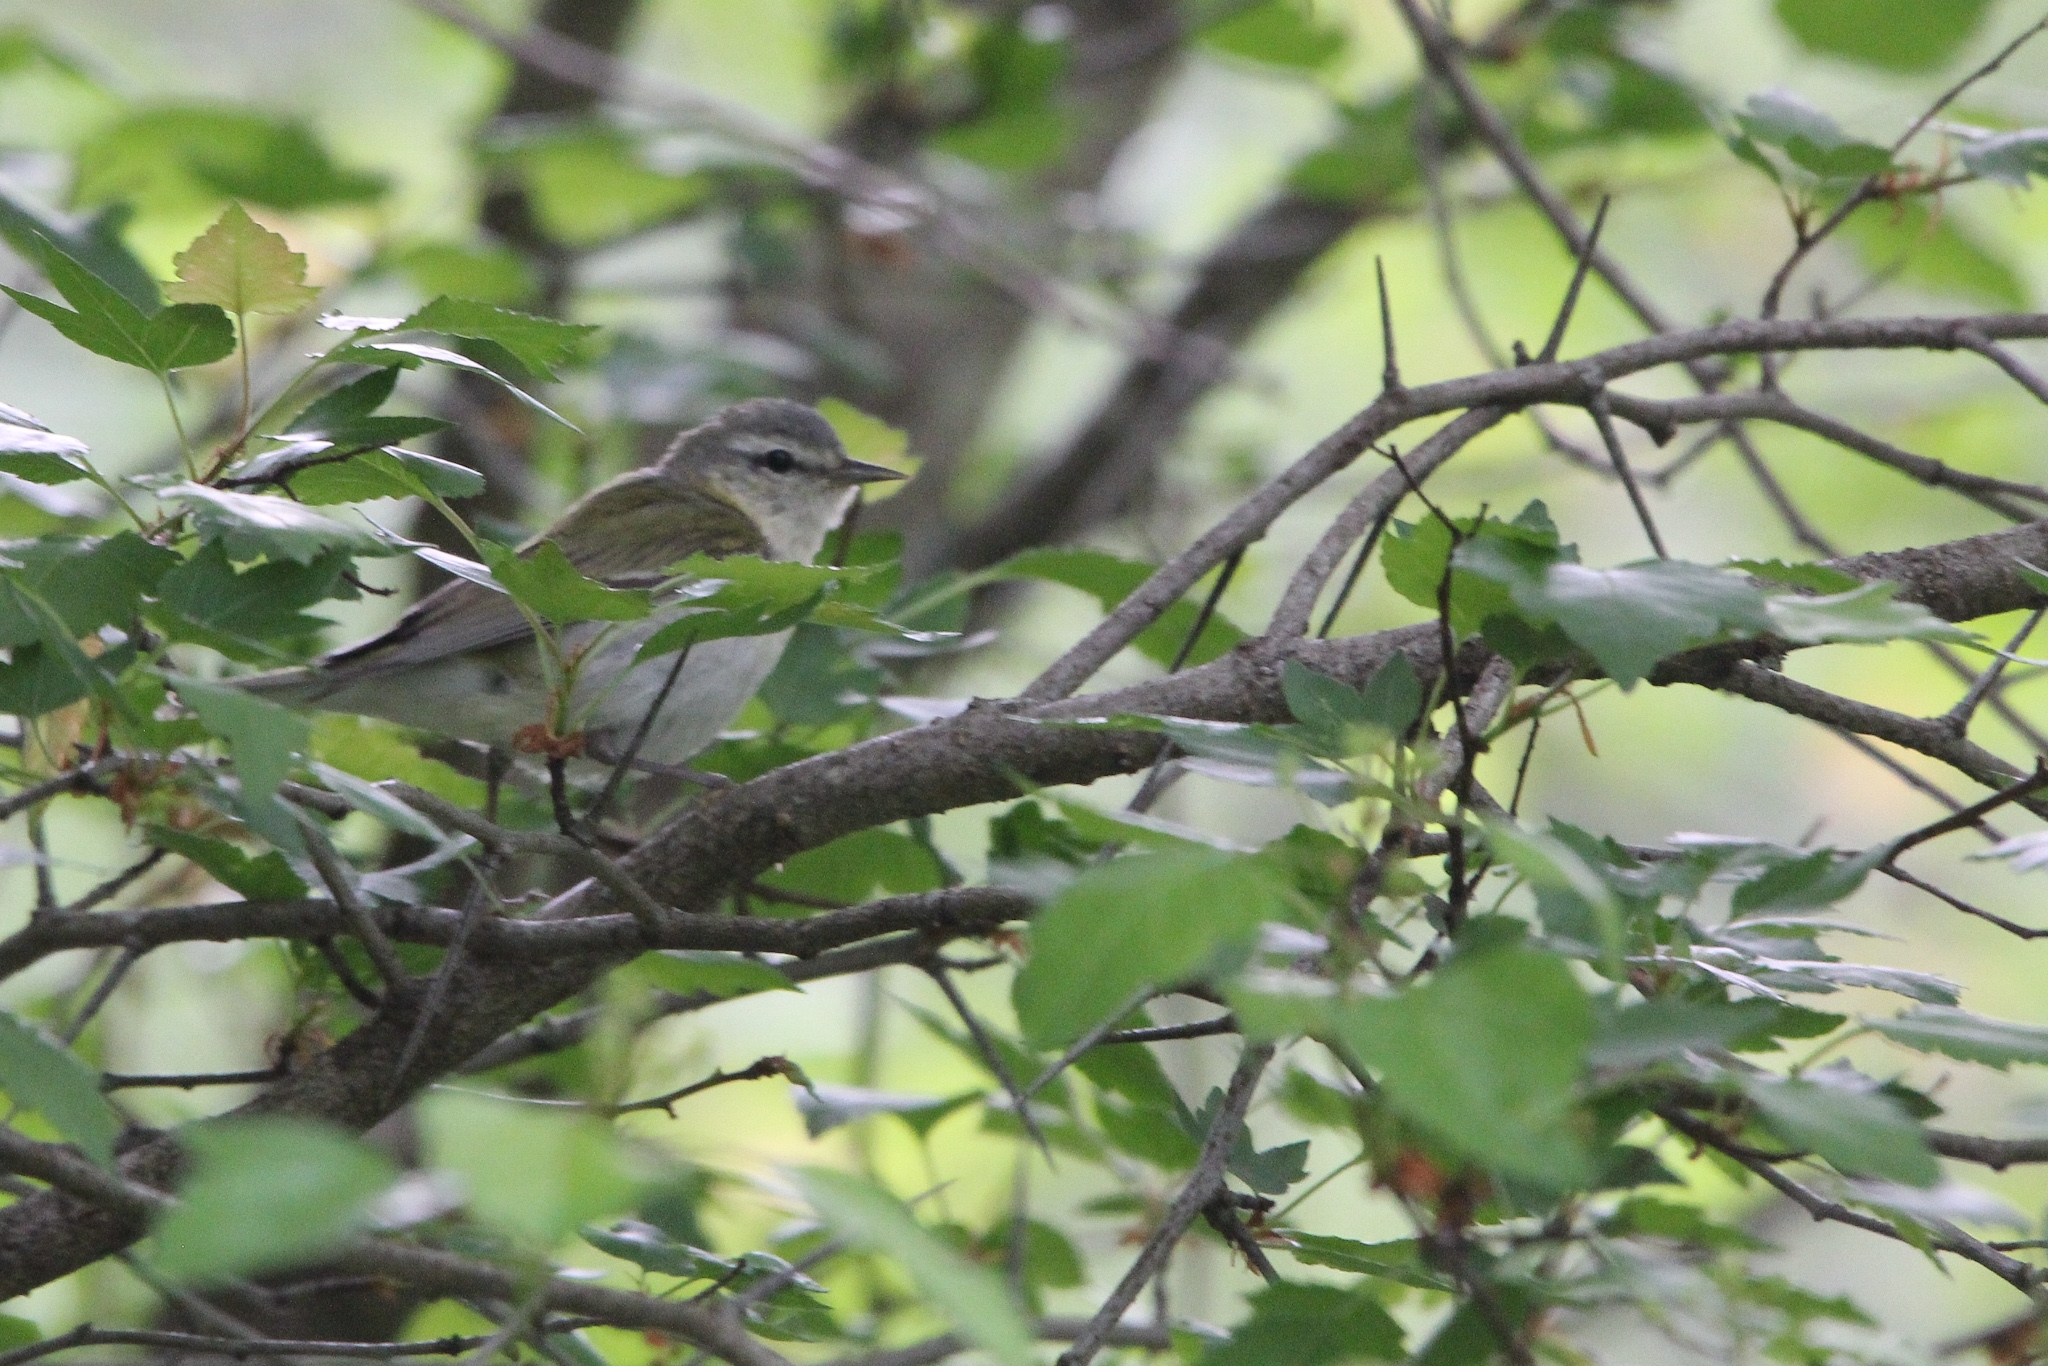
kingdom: Animalia
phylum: Chordata
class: Aves
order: Passeriformes
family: Parulidae
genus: Leiothlypis
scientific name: Leiothlypis peregrina
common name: Tennessee warbler
